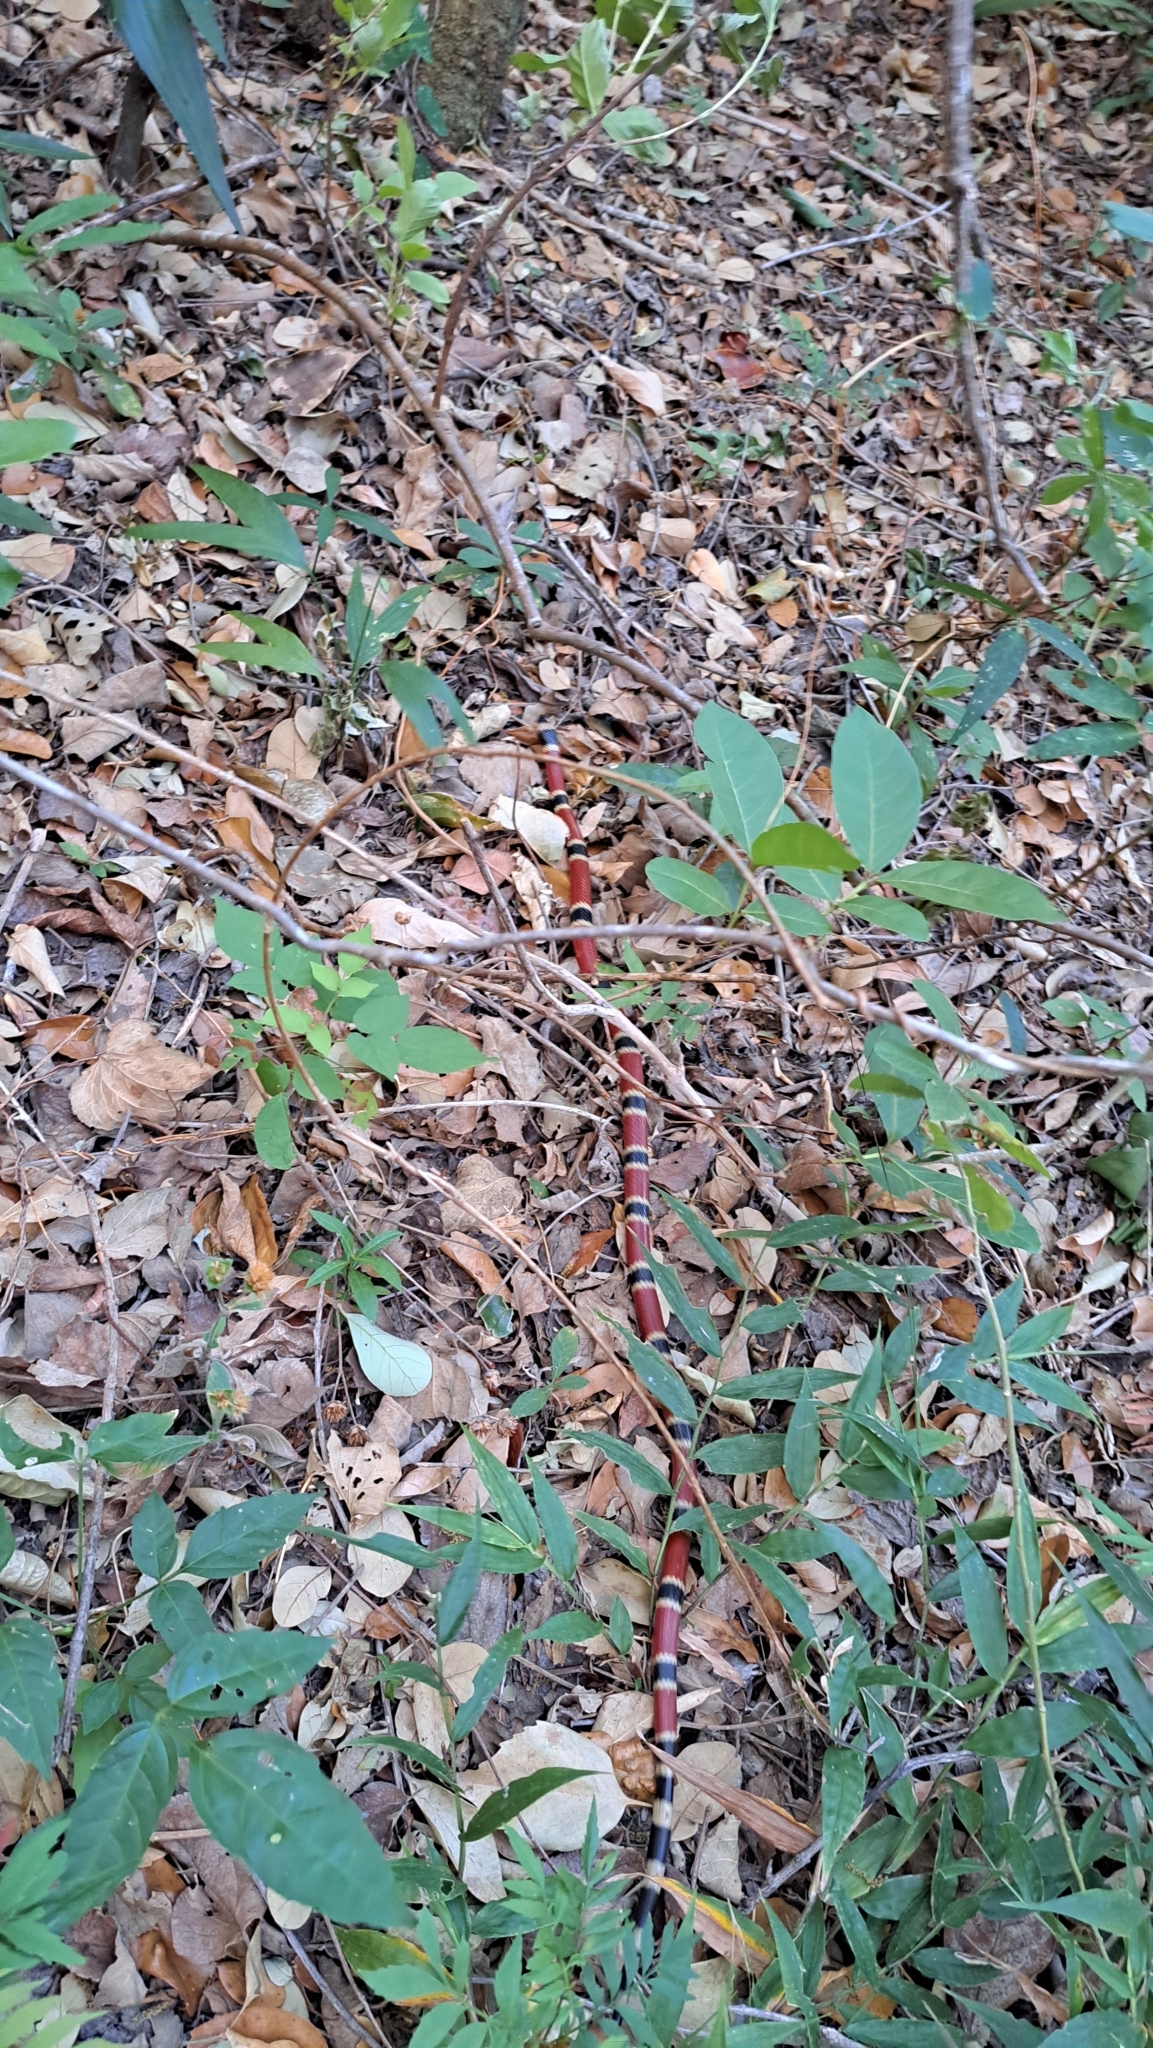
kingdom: Animalia
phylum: Chordata
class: Squamata
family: Elapidae
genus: Micrurus
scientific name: Micrurus nigrocinctus
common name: Babaspul [babaspul]
